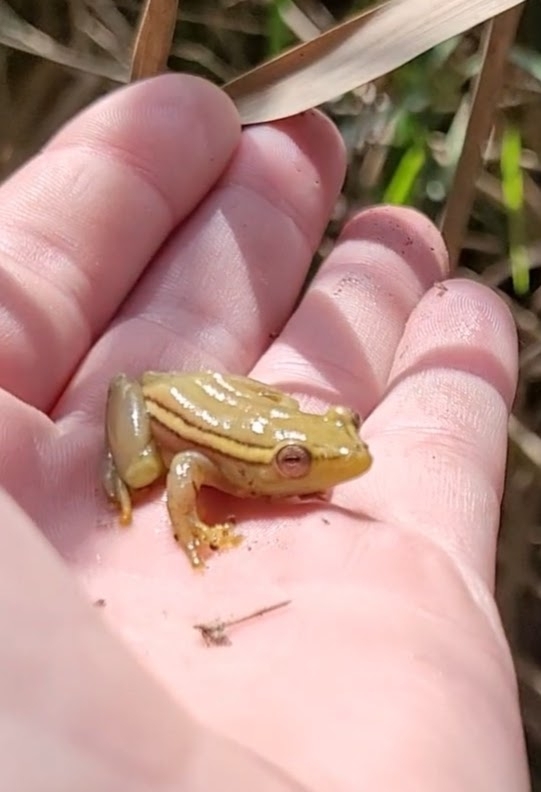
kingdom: Animalia
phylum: Chordata
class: Amphibia
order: Anura
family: Hyperoliidae
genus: Hyperolius
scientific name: Hyperolius argus
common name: Argus reed frog
